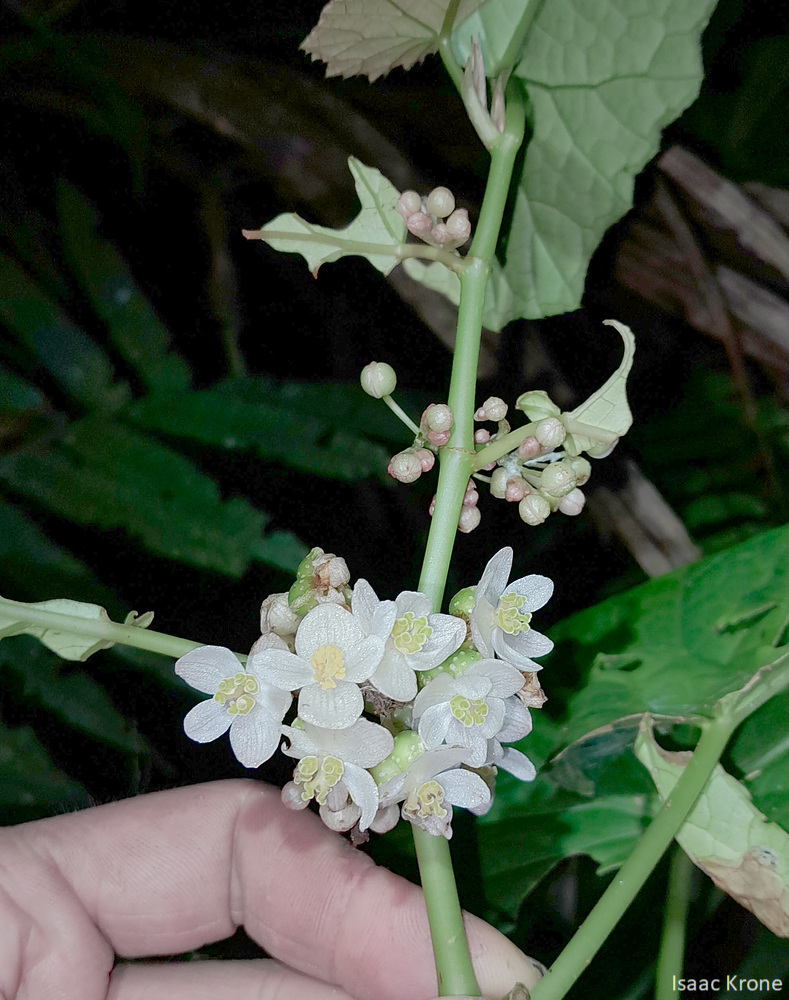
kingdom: Plantae
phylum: Tracheophyta
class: Magnoliopsida
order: Cucurbitales
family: Begoniaceae
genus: Begonia
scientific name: Begonia aptera
